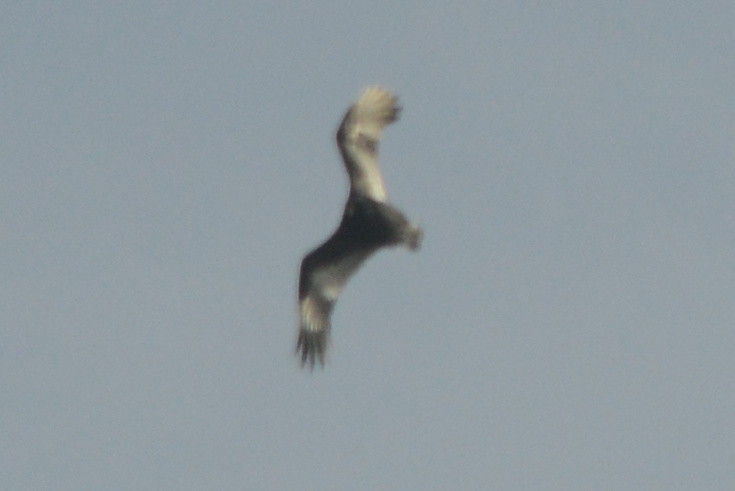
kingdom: Animalia
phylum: Chordata
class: Aves
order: Accipitriformes
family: Cathartidae
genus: Cathartes
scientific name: Cathartes aura
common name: Turkey vulture
